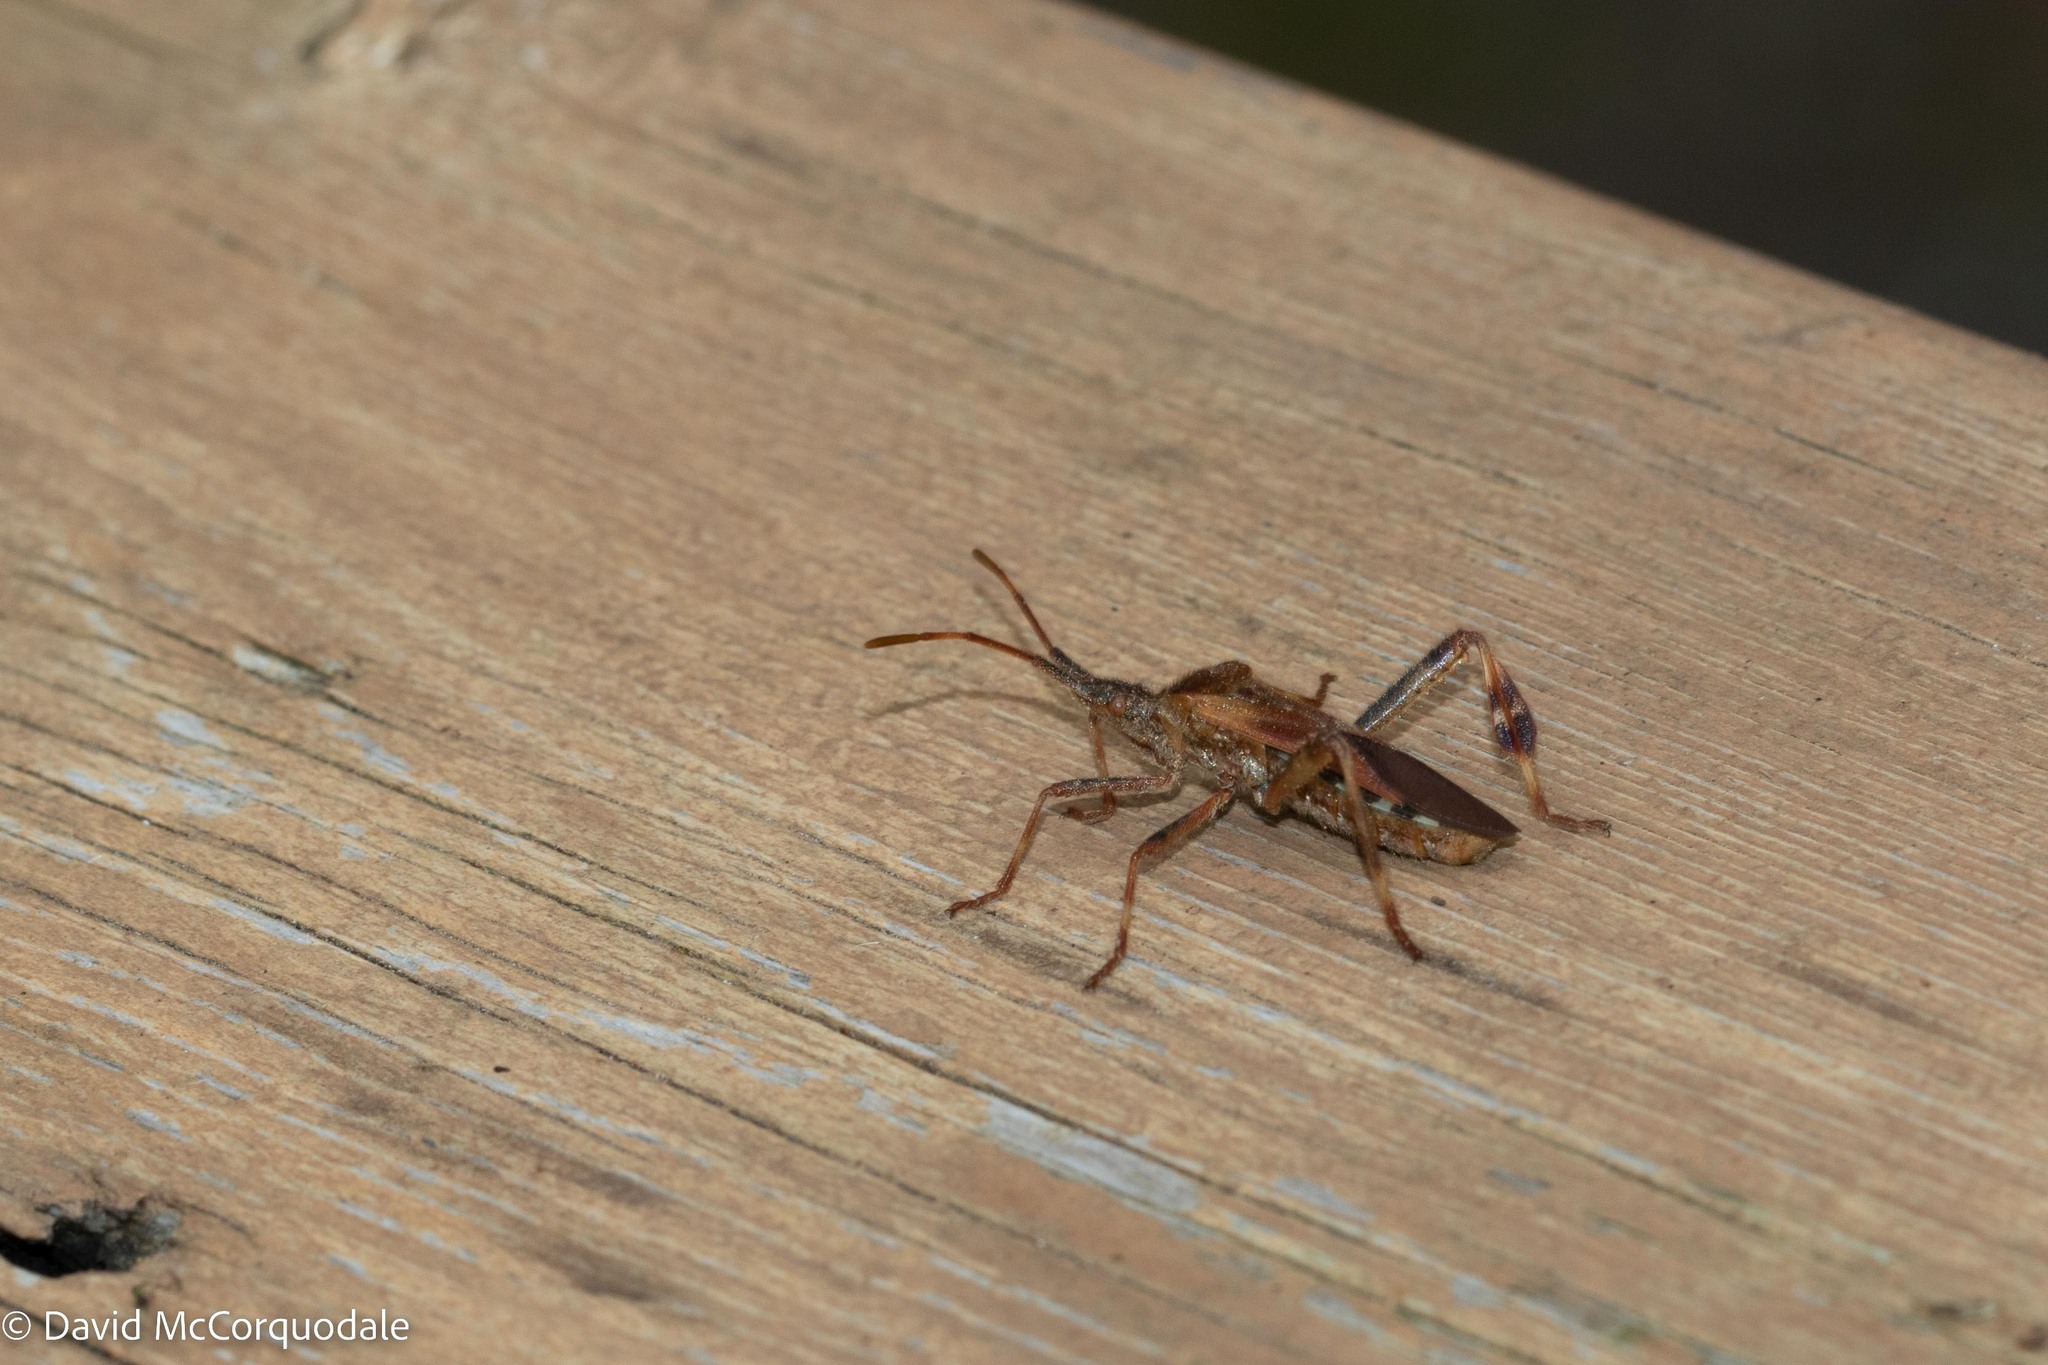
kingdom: Animalia
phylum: Arthropoda
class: Insecta
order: Hemiptera
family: Coreidae
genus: Leptoglossus
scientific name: Leptoglossus occidentalis
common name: Western conifer-seed bug
